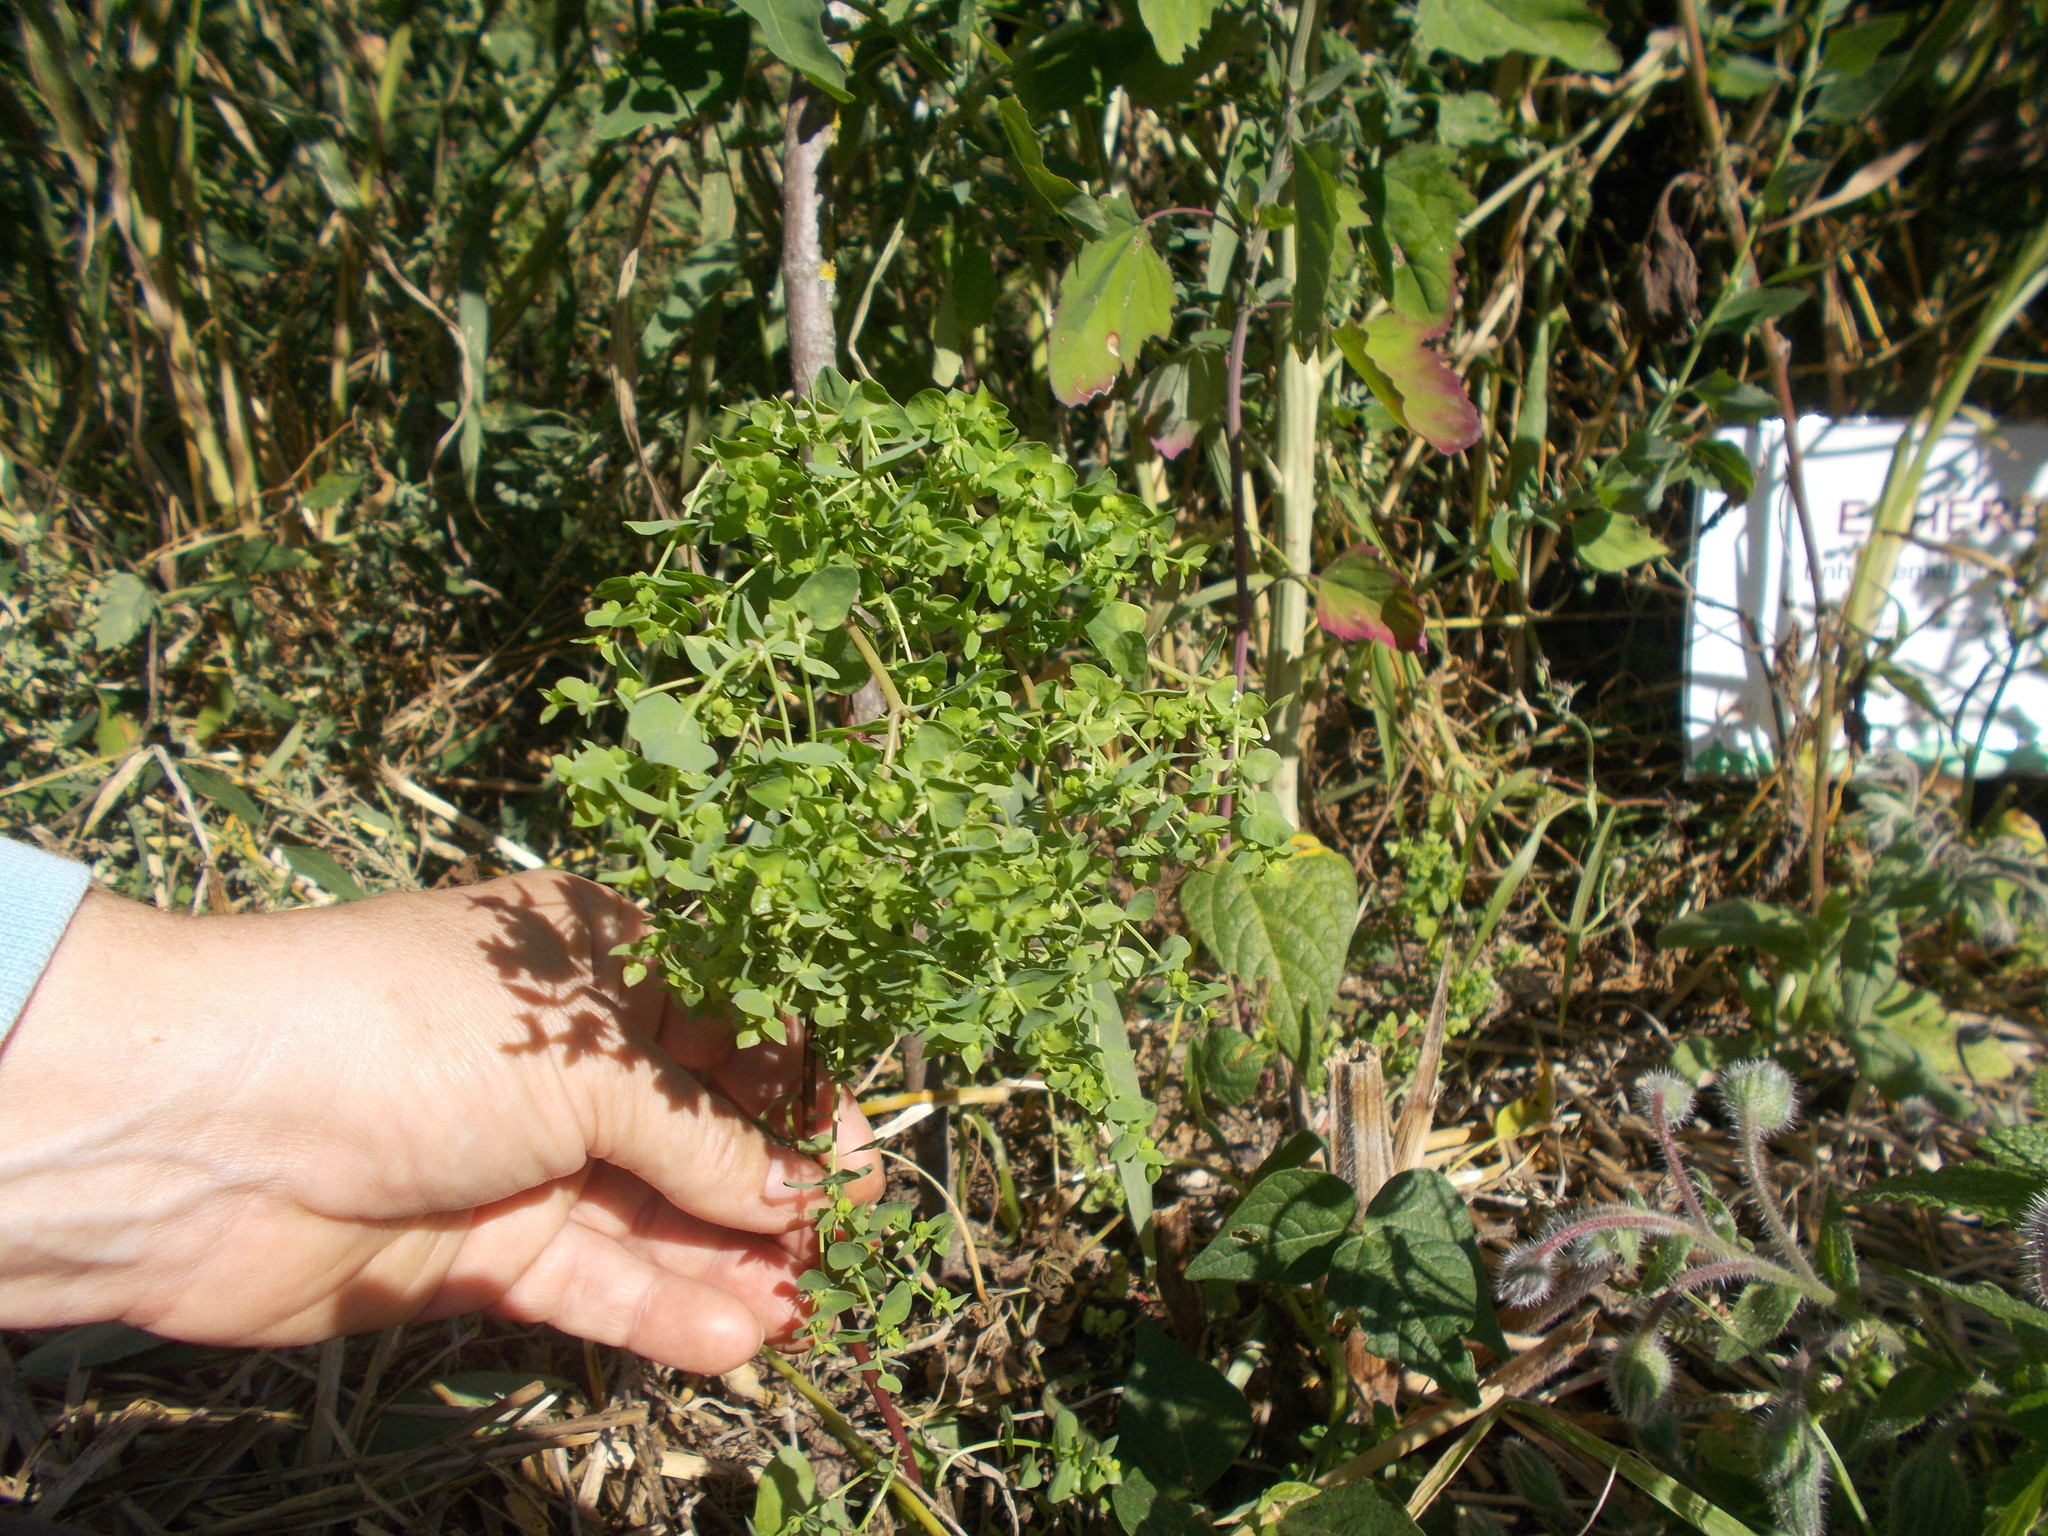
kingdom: Plantae
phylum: Tracheophyta
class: Magnoliopsida
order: Malpighiales
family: Euphorbiaceae
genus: Euphorbia
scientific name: Euphorbia peplus
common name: Petty spurge
